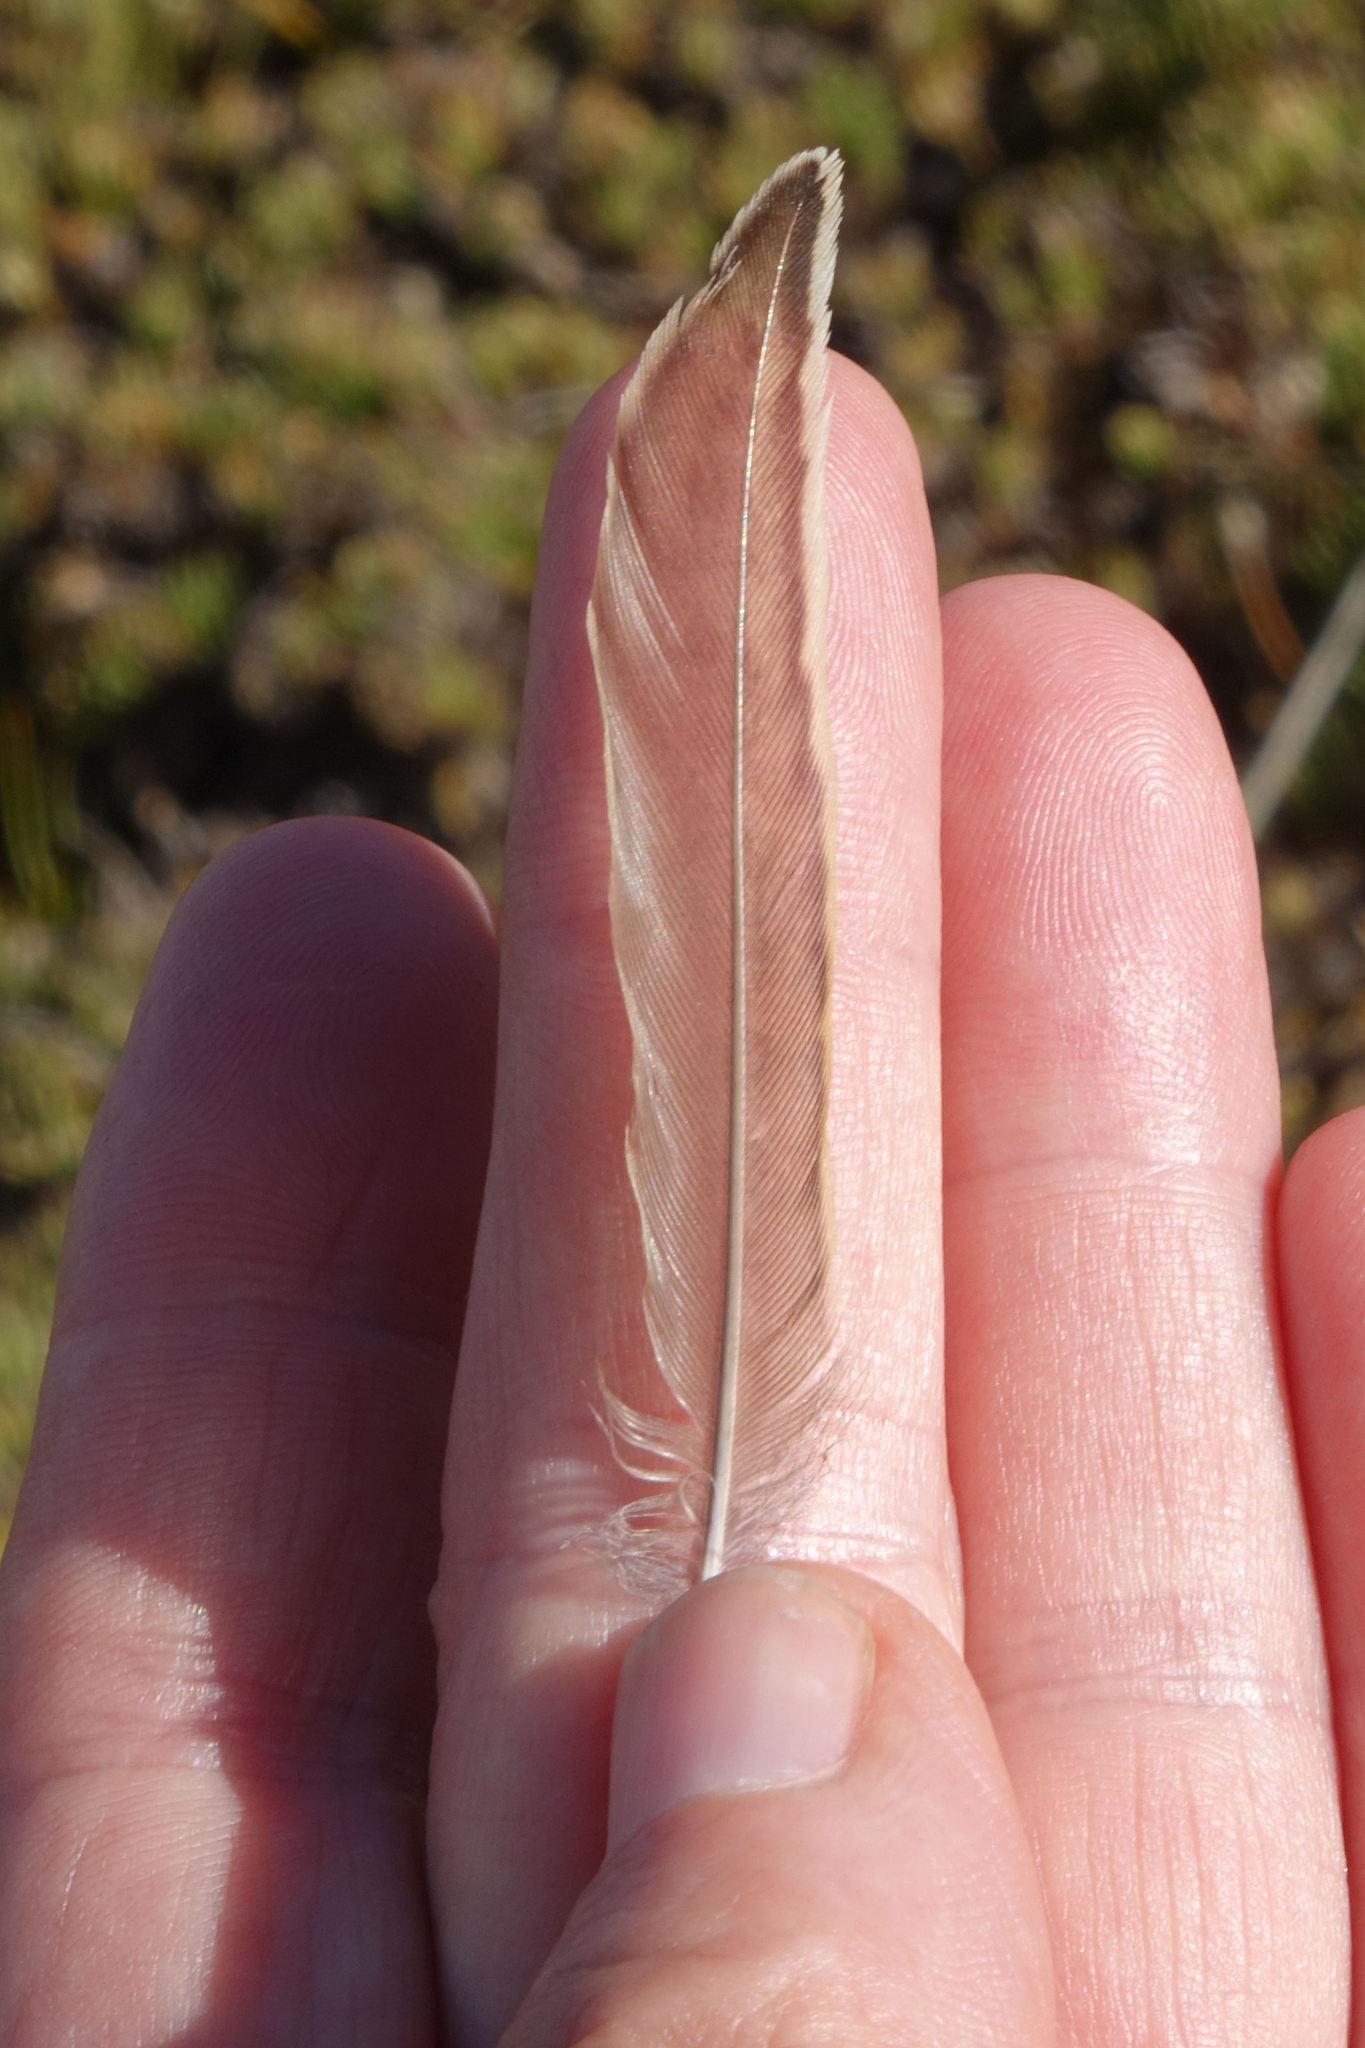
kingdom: Animalia
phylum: Chordata
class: Aves
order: Passeriformes
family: Alaudidae
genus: Alauda
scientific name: Alauda arvensis
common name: Eurasian skylark
